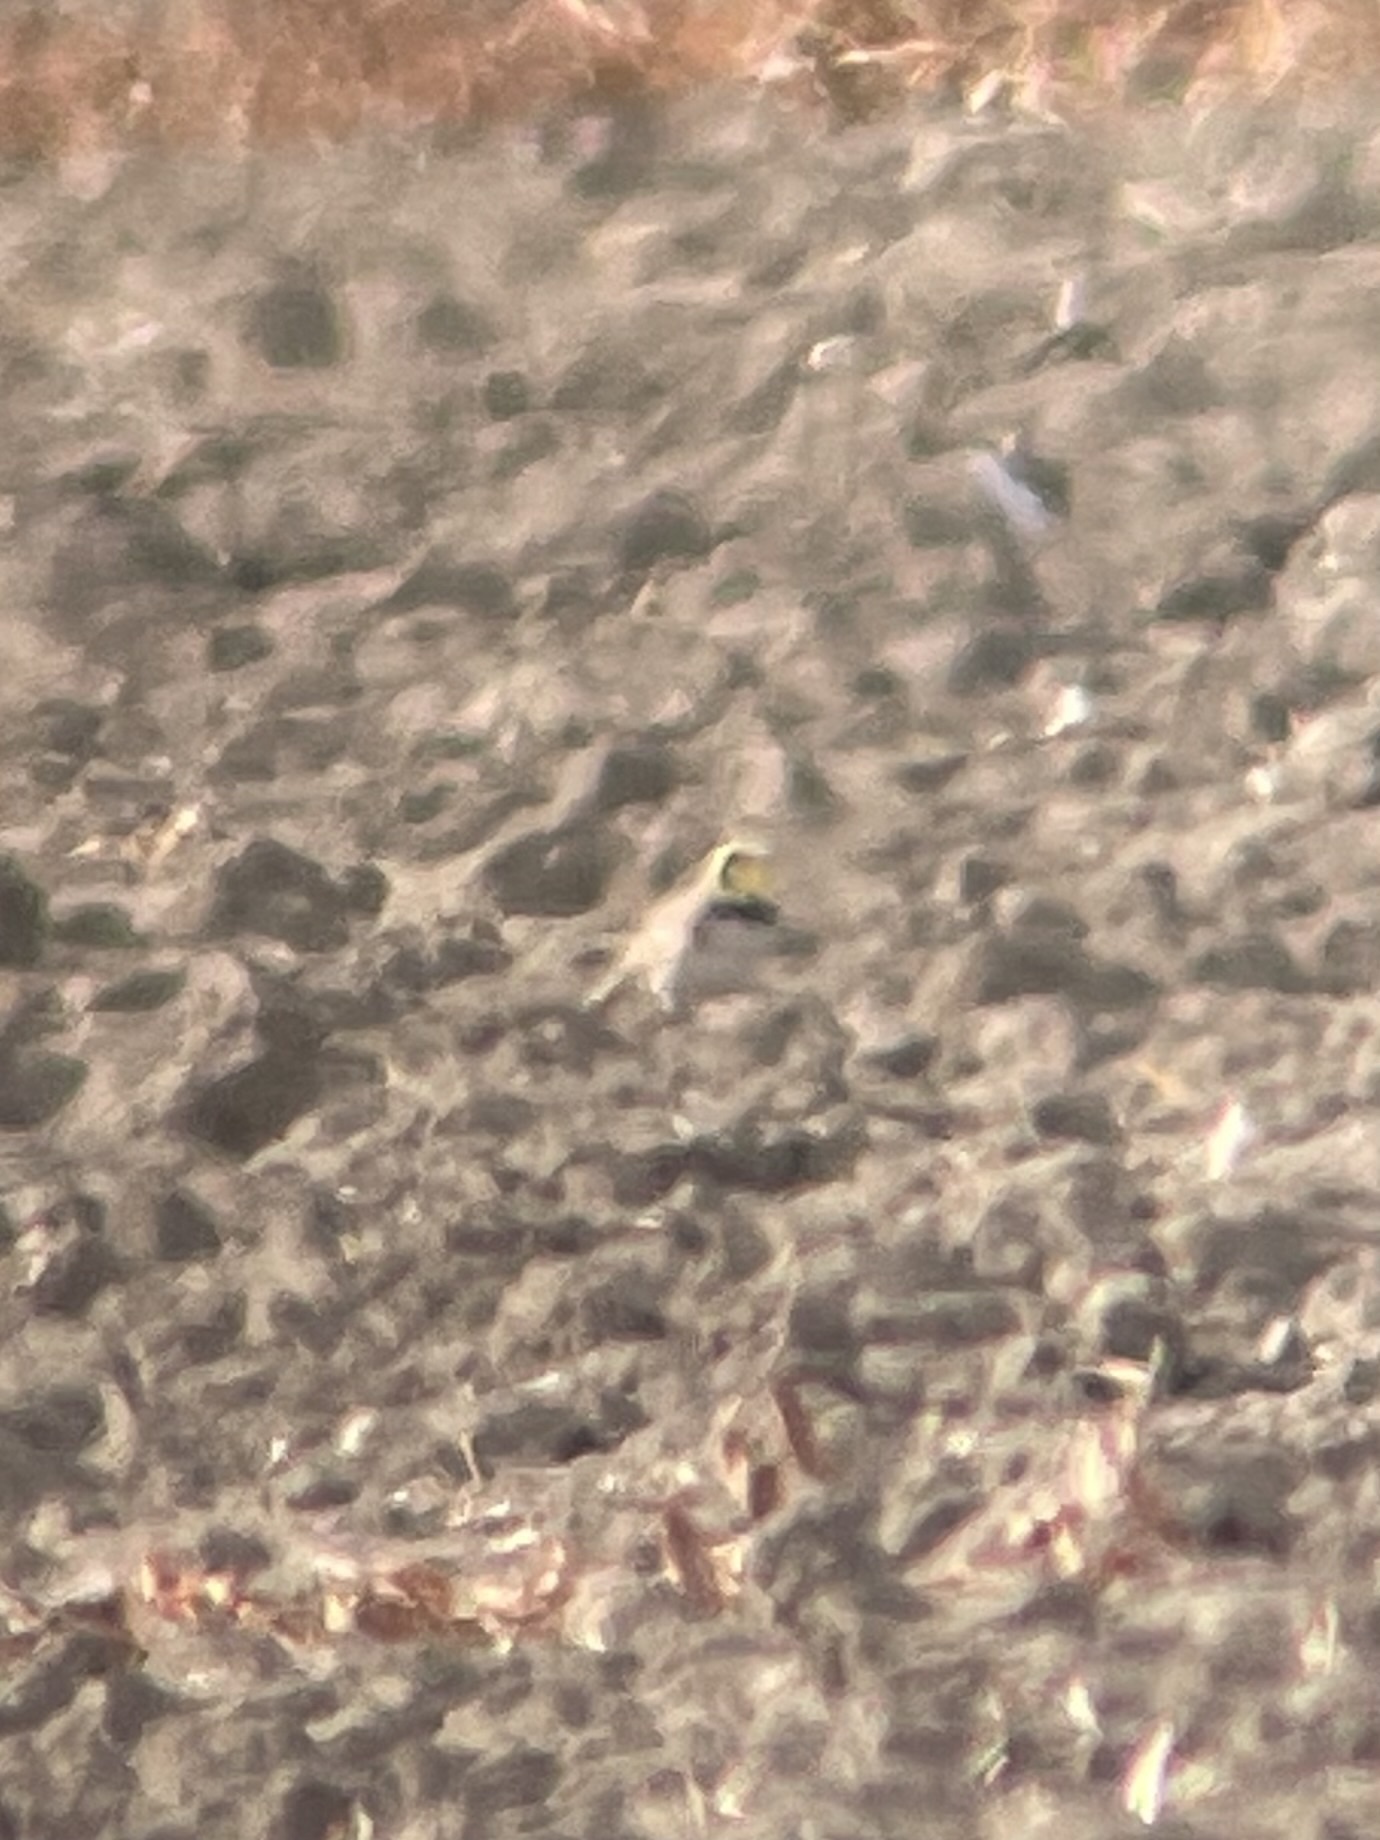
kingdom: Animalia
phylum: Chordata
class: Aves
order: Passeriformes
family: Alaudidae
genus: Eremophila
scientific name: Eremophila alpestris
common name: Horned lark
